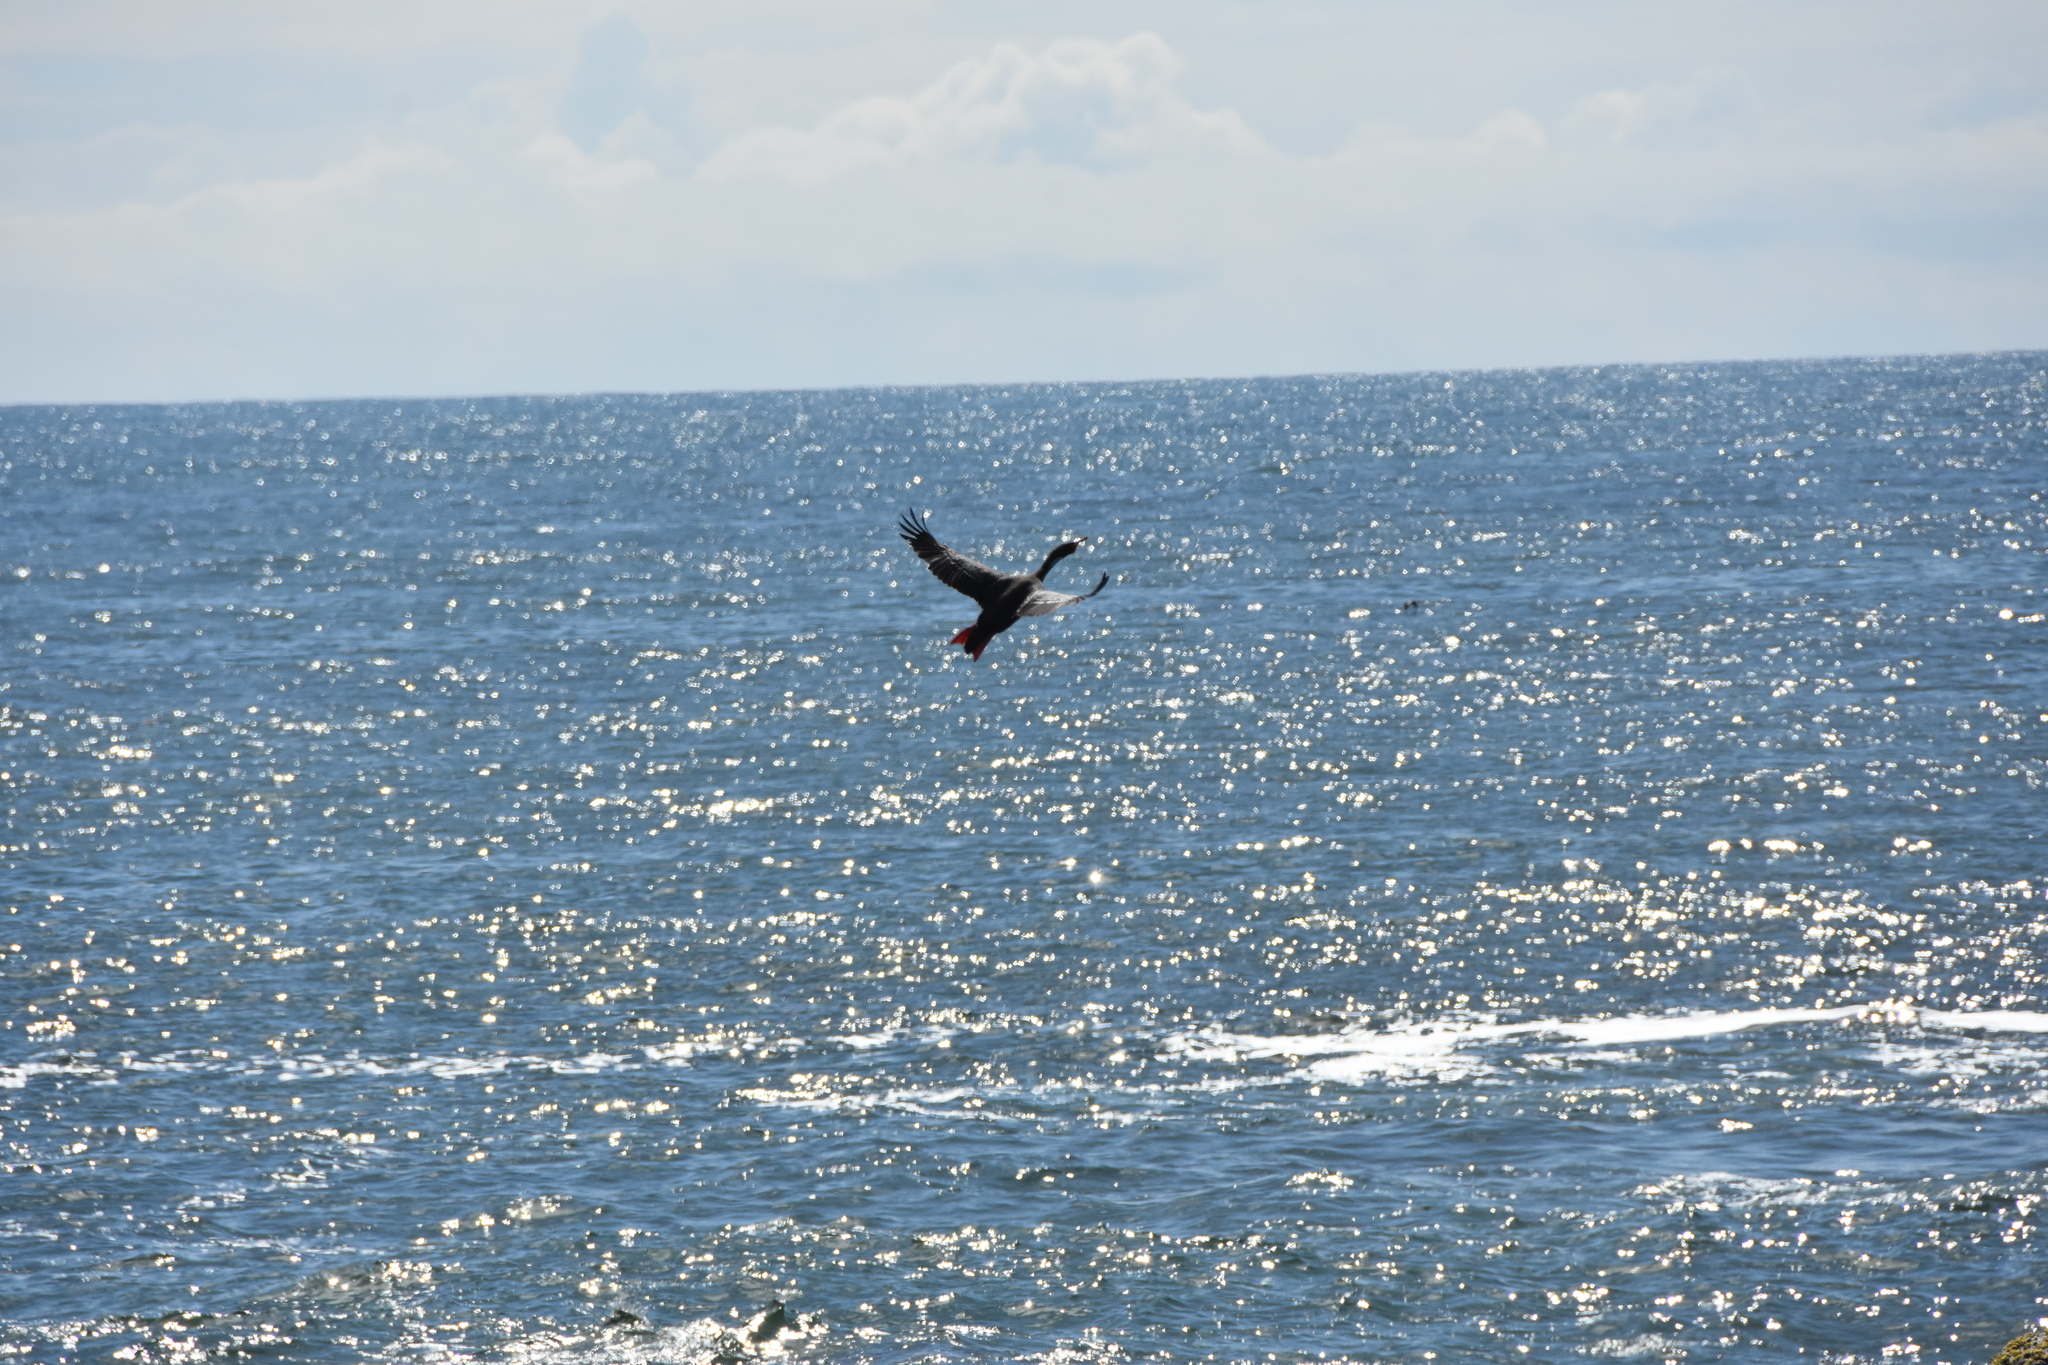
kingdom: Animalia
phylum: Chordata
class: Aves
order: Suliformes
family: Phalacrocoracidae
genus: Phalacrocorax
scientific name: Phalacrocorax gaimardi
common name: Red-legged cormorant
